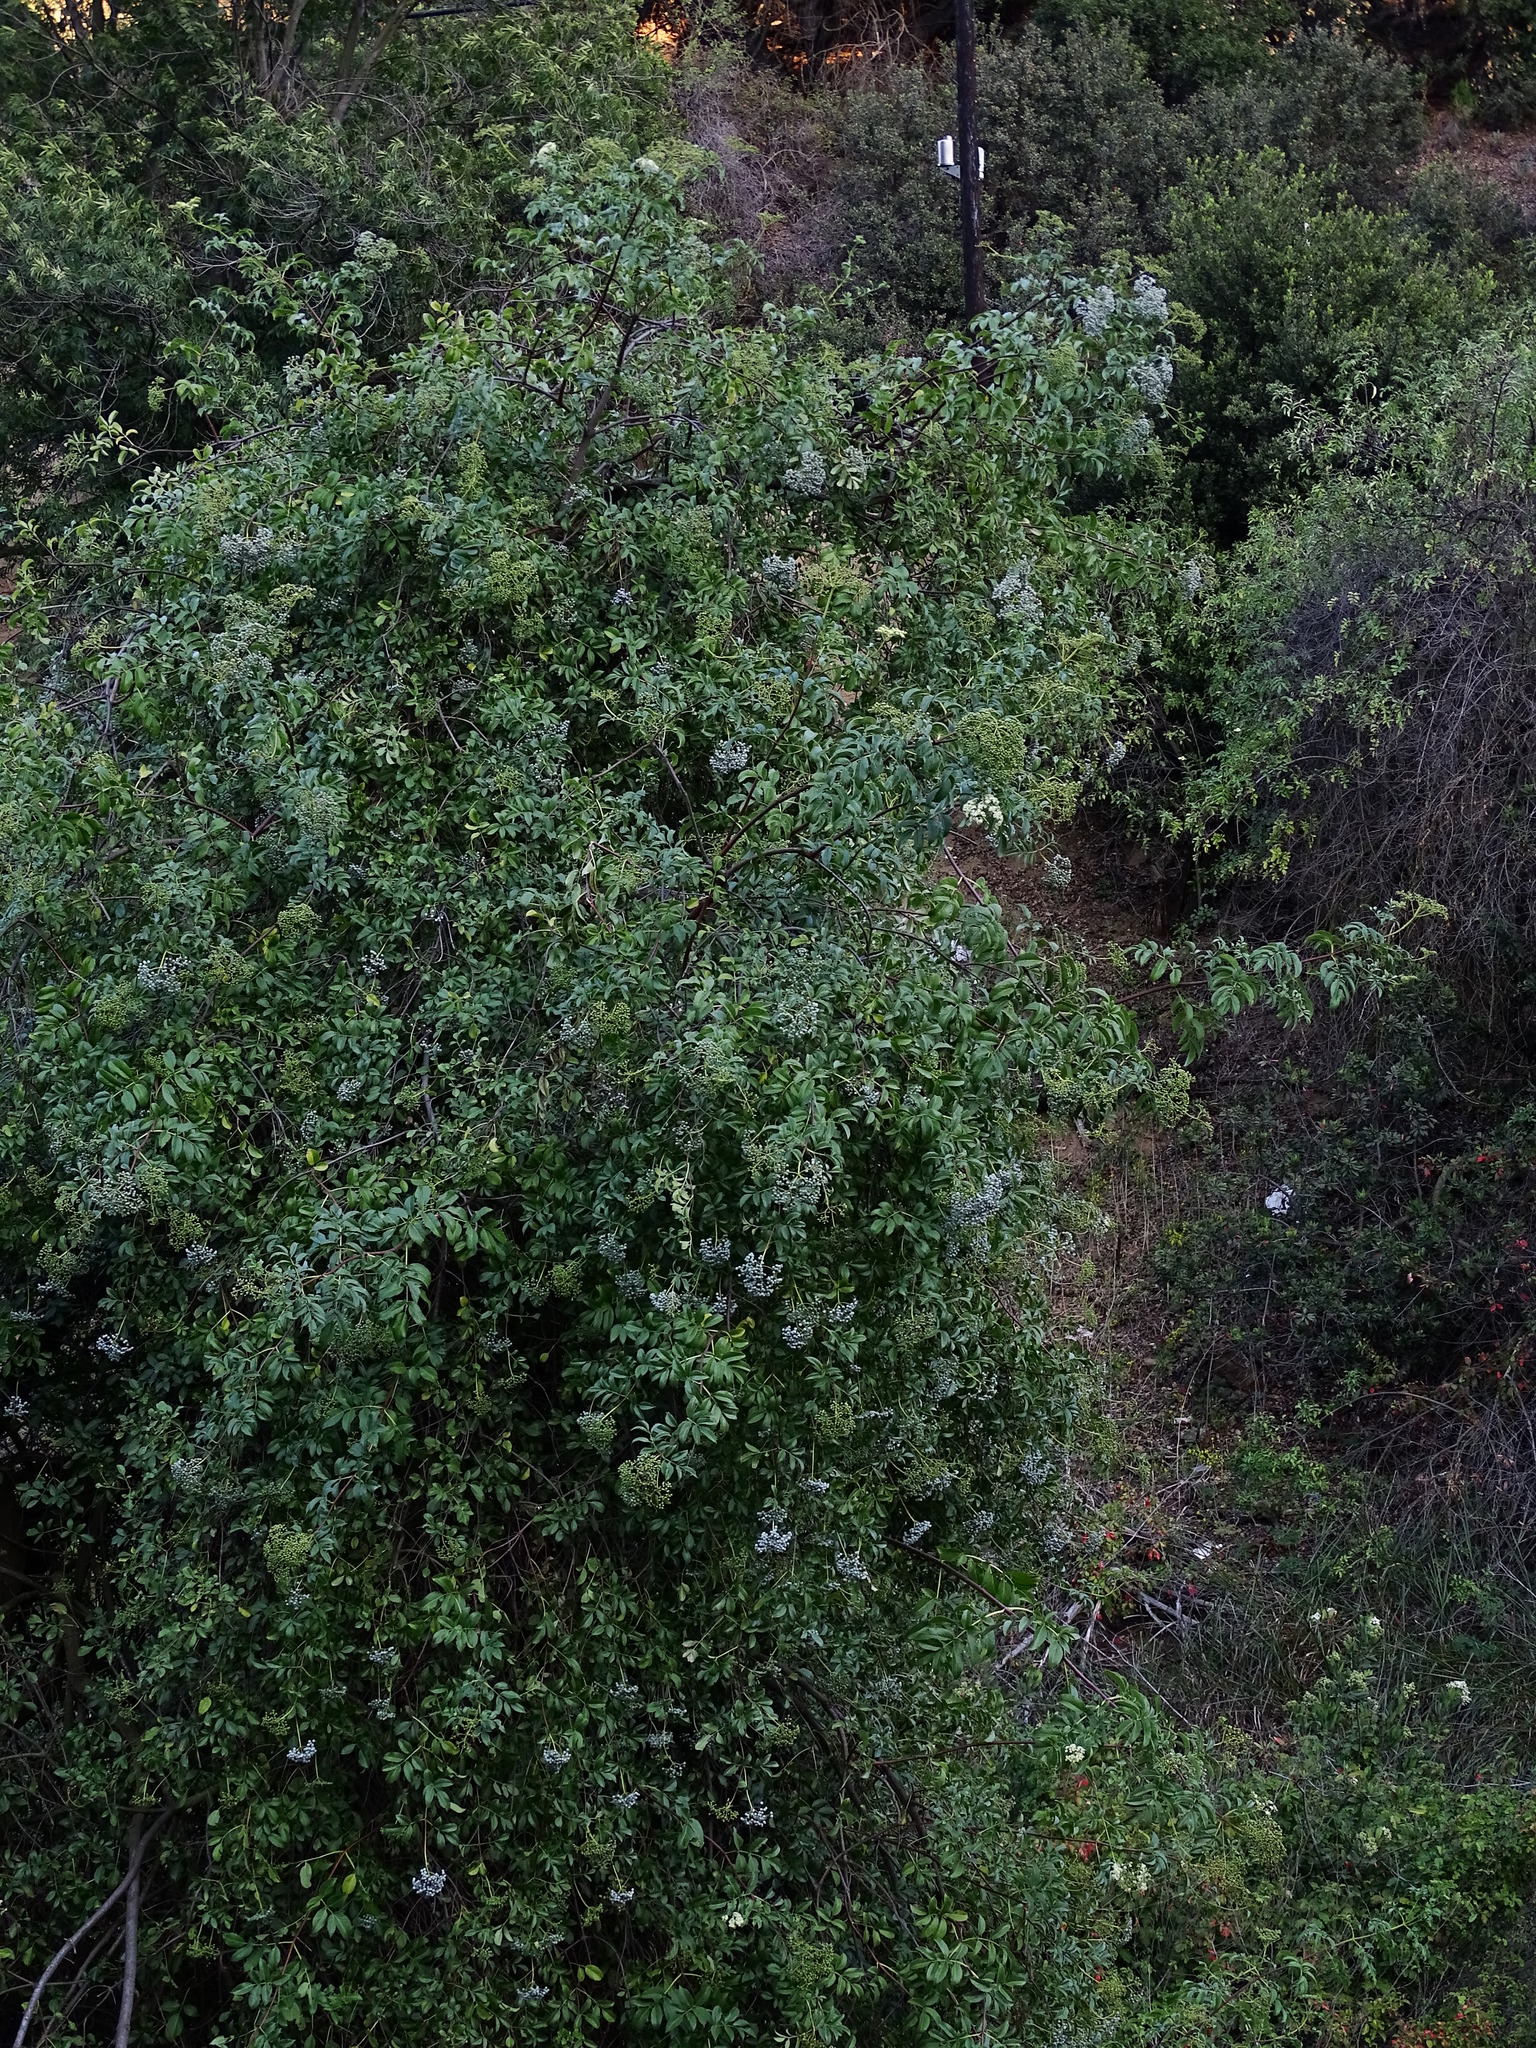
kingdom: Plantae
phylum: Tracheophyta
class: Magnoliopsida
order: Dipsacales
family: Viburnaceae
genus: Sambucus
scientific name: Sambucus cerulea
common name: Blue elder
